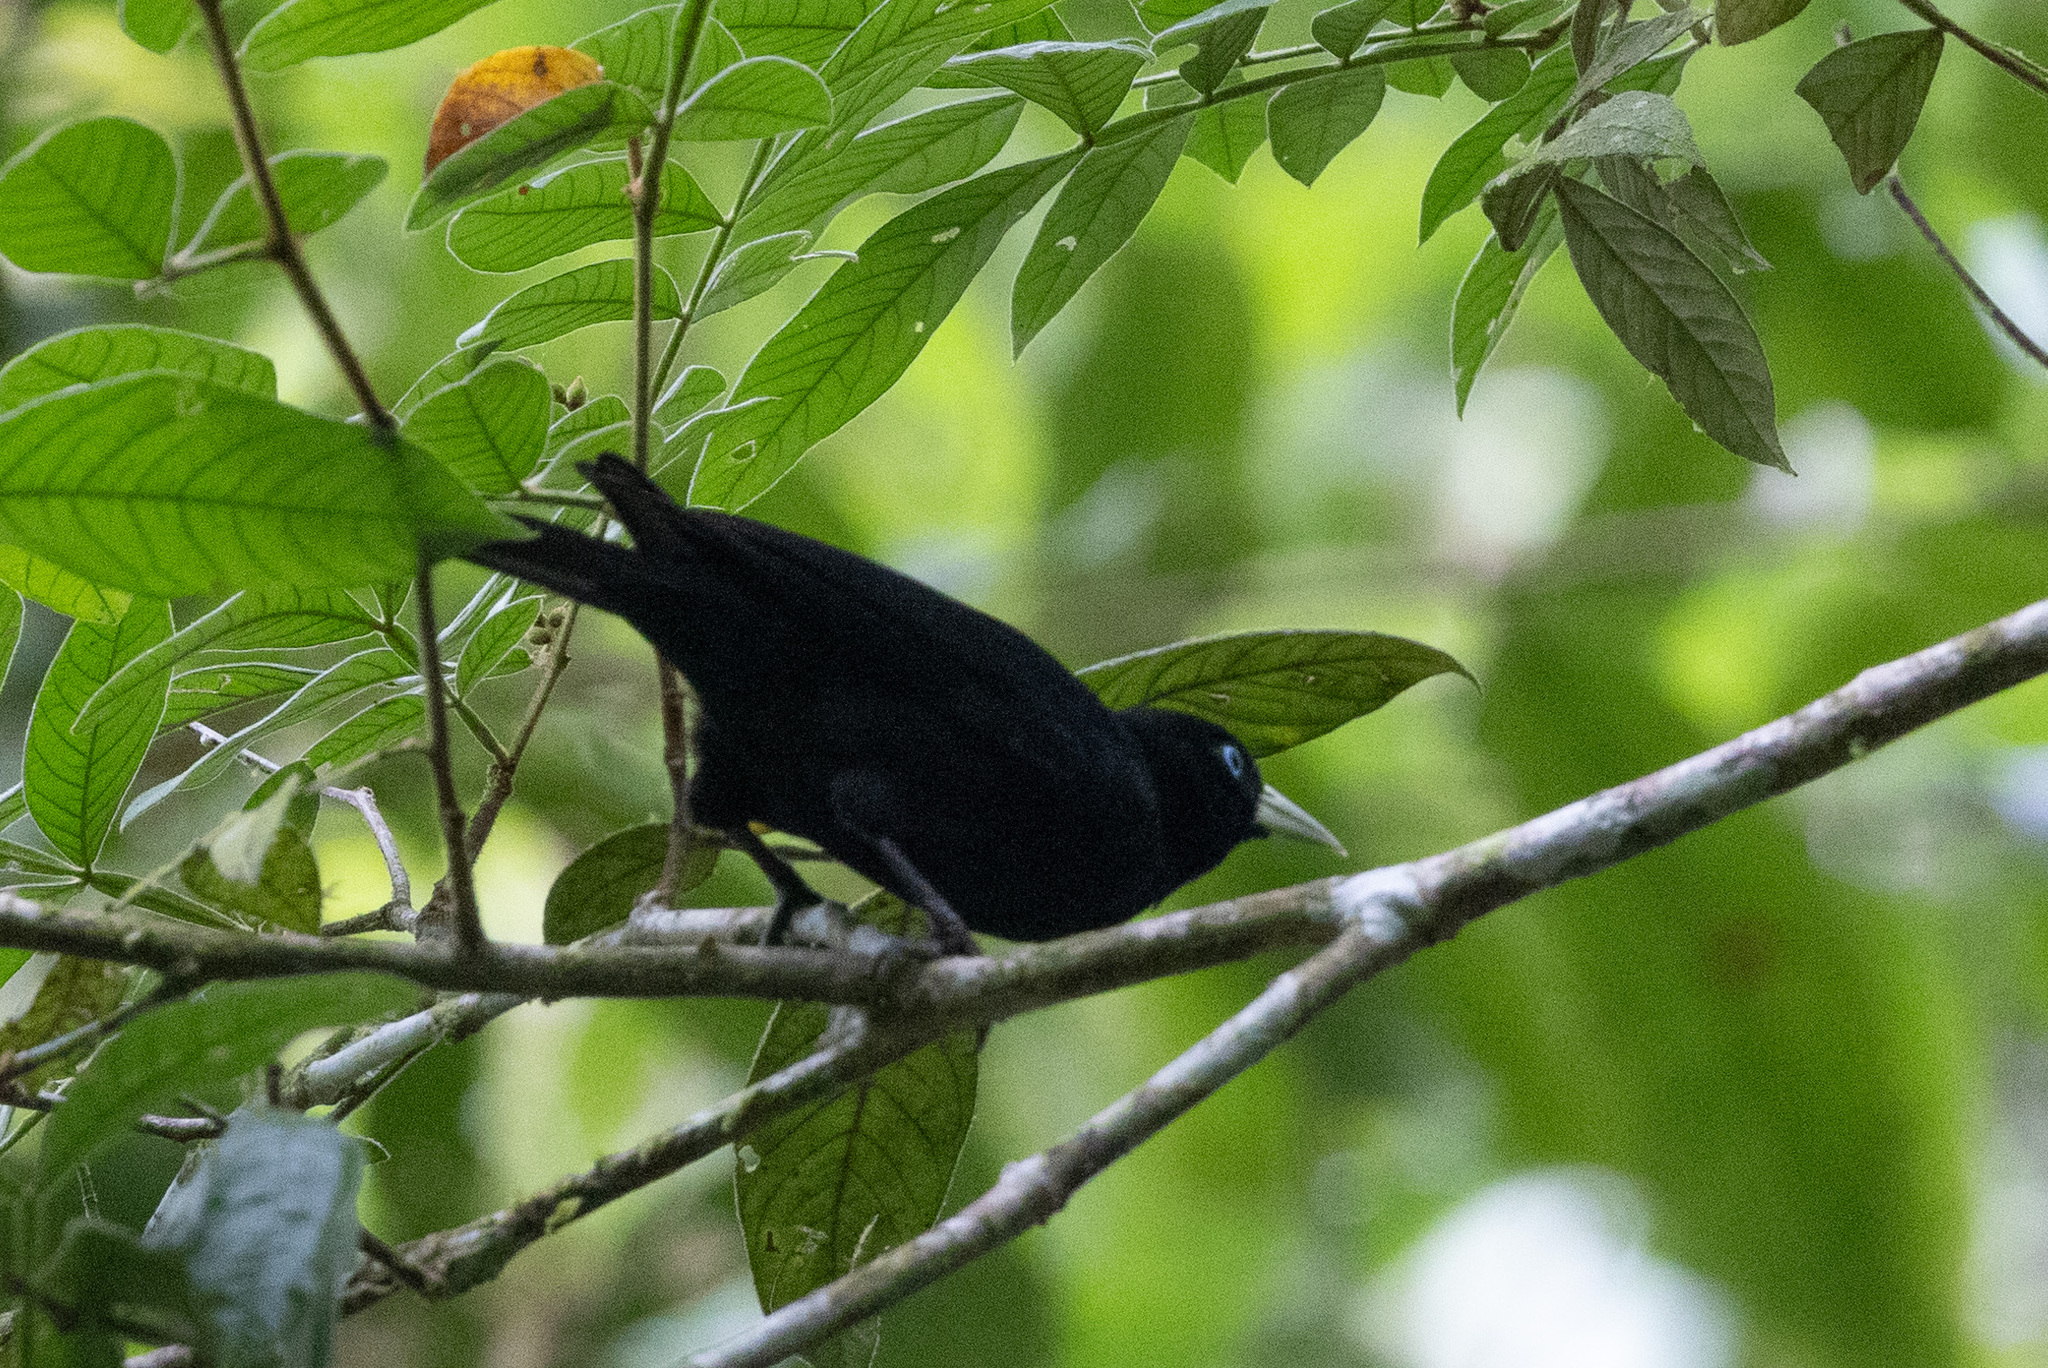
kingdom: Animalia
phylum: Chordata
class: Aves
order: Passeriformes
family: Icteridae
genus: Cacicus
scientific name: Cacicus uropygialis
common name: Scarlet-rumped cacique
